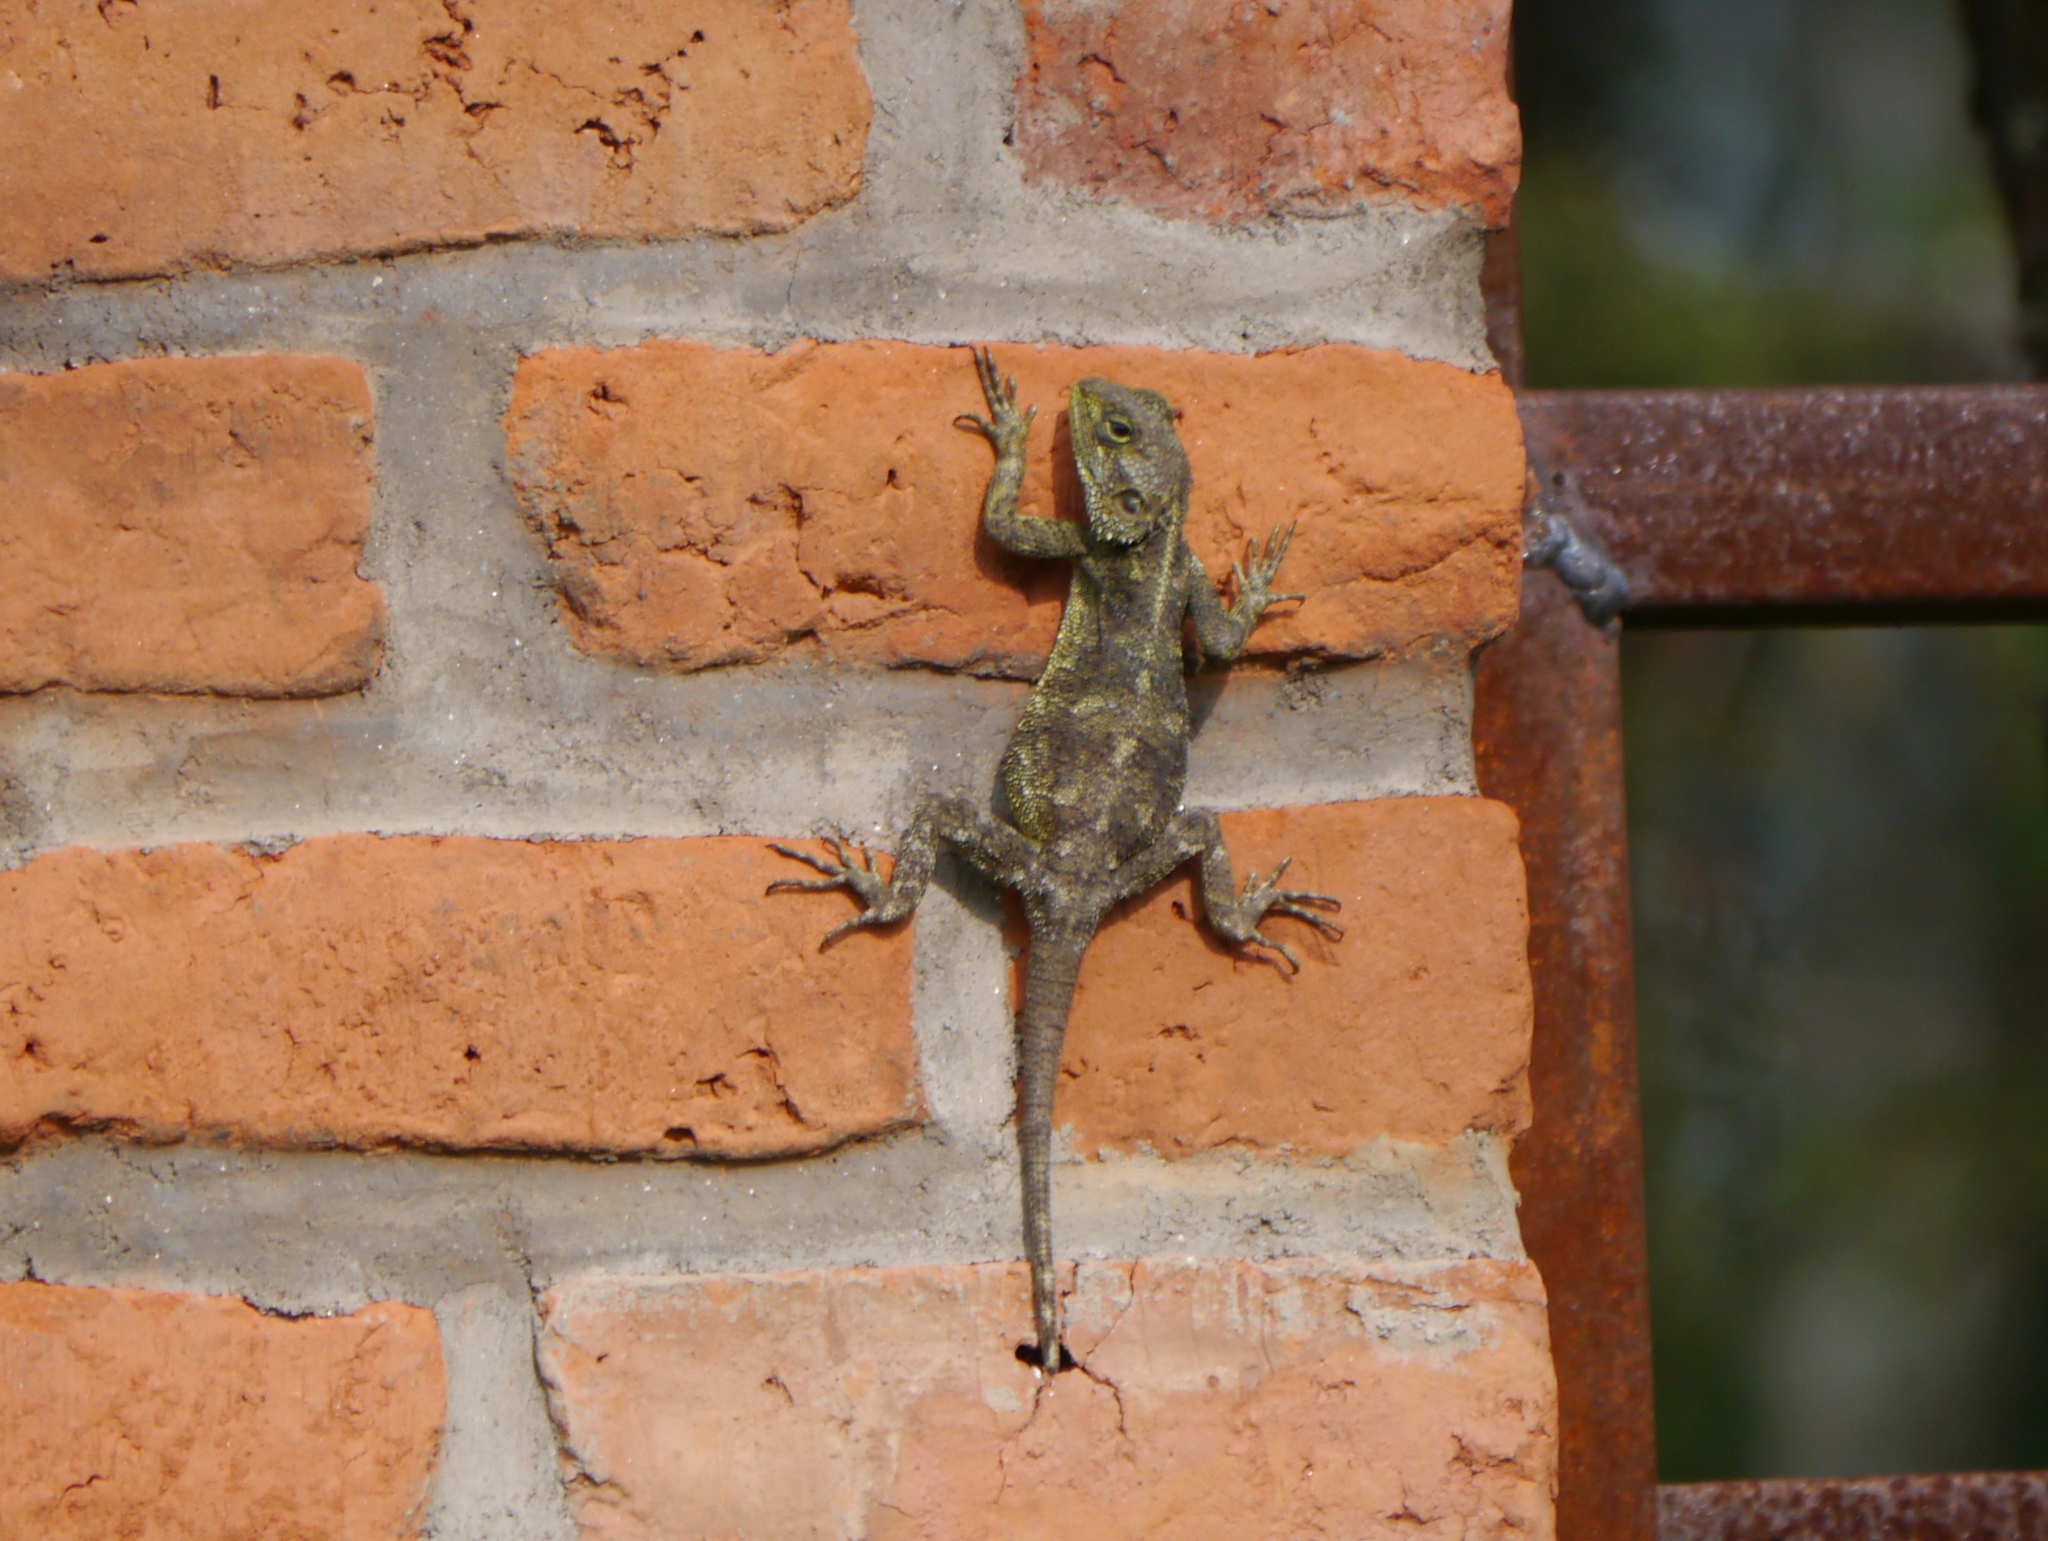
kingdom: Animalia
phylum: Chordata
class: Squamata
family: Agamidae
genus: Acanthocercus
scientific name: Acanthocercus
